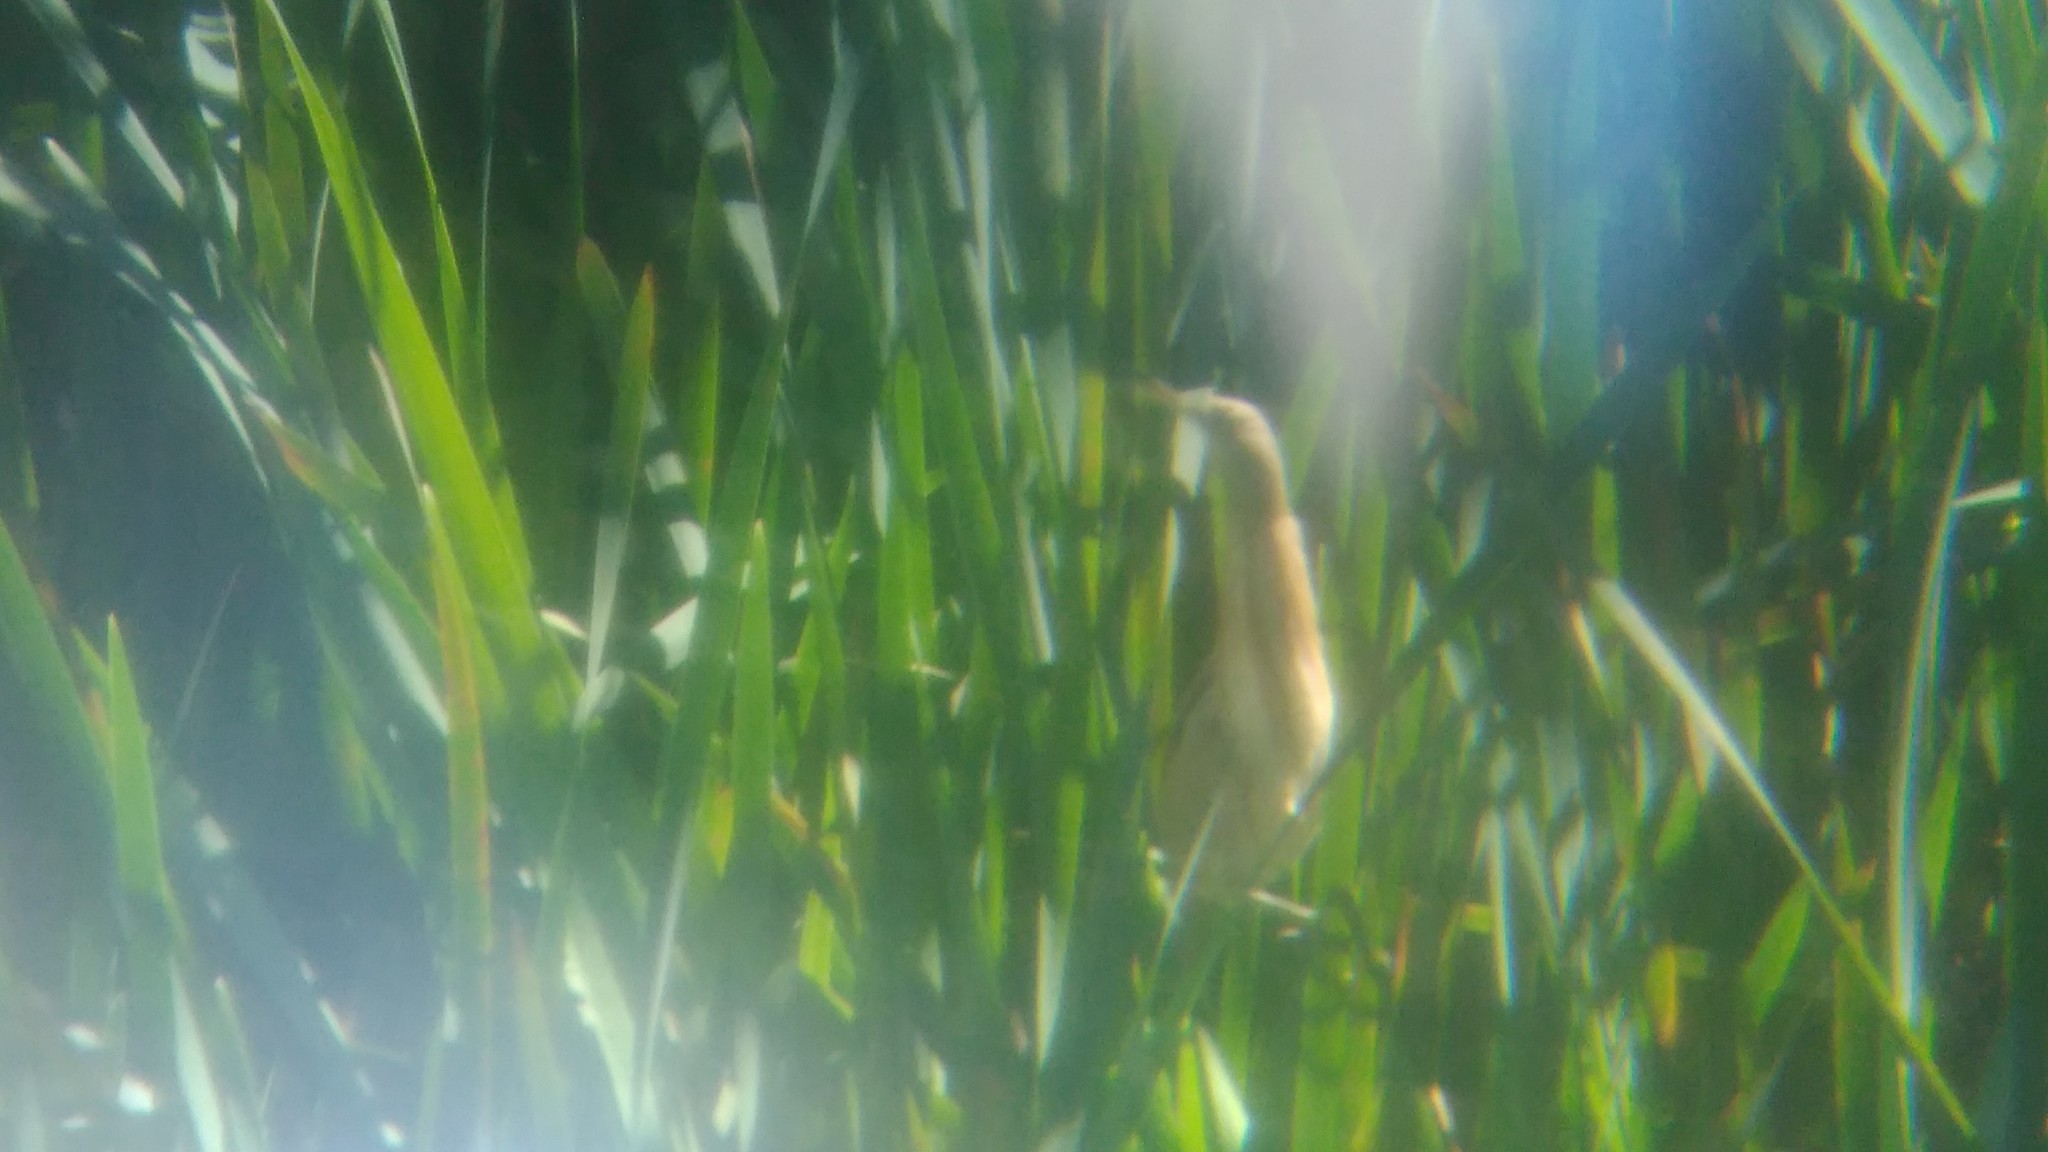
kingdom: Animalia
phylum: Chordata
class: Aves
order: Pelecaniformes
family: Ardeidae
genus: Ixobrychus
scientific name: Ixobrychus involucris
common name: Stripe-backed bittern
